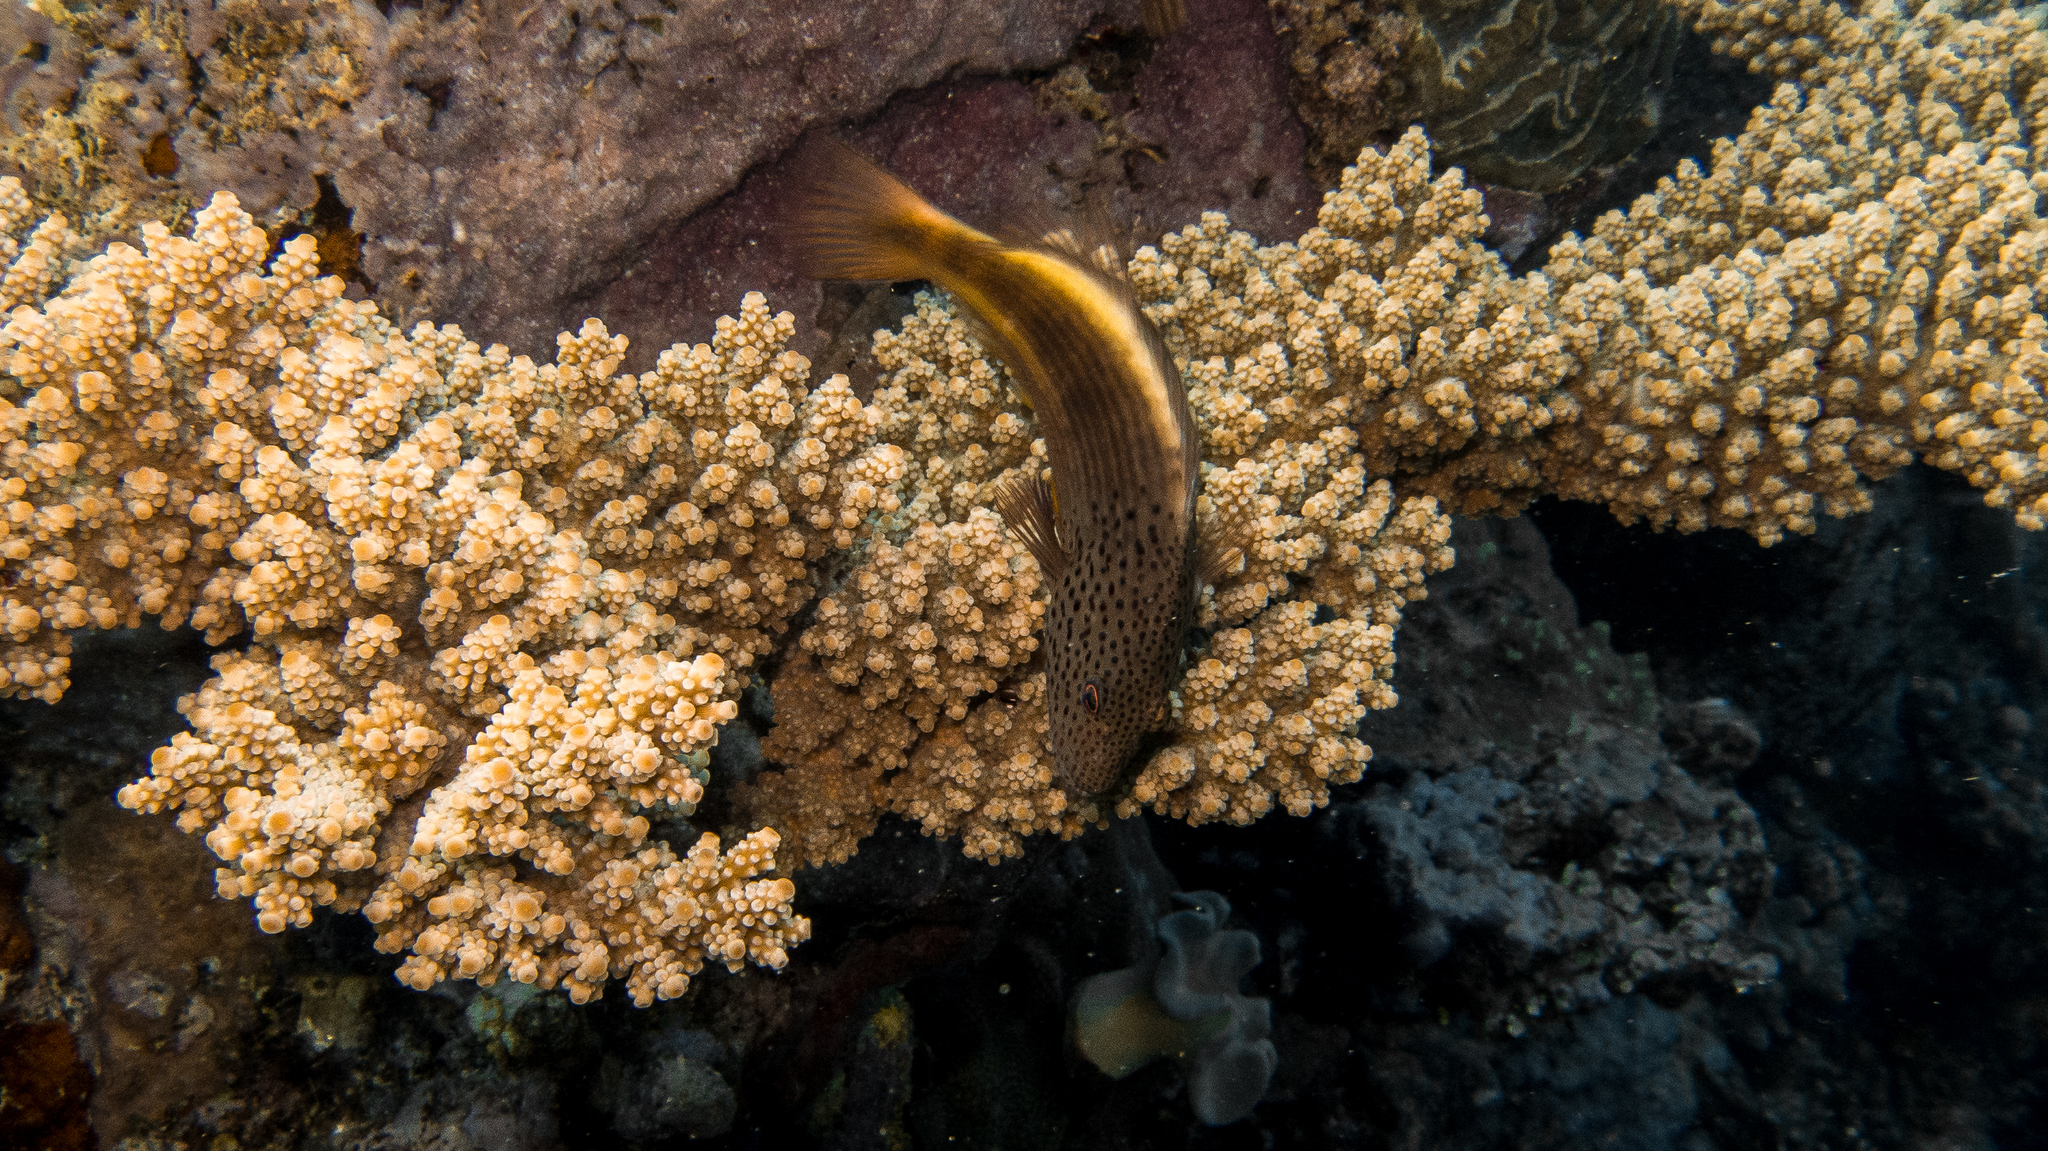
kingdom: Animalia
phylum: Chordata
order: Perciformes
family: Cirrhitidae
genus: Paracirrhites
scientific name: Paracirrhites forsteri
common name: Freckled hawkfish
